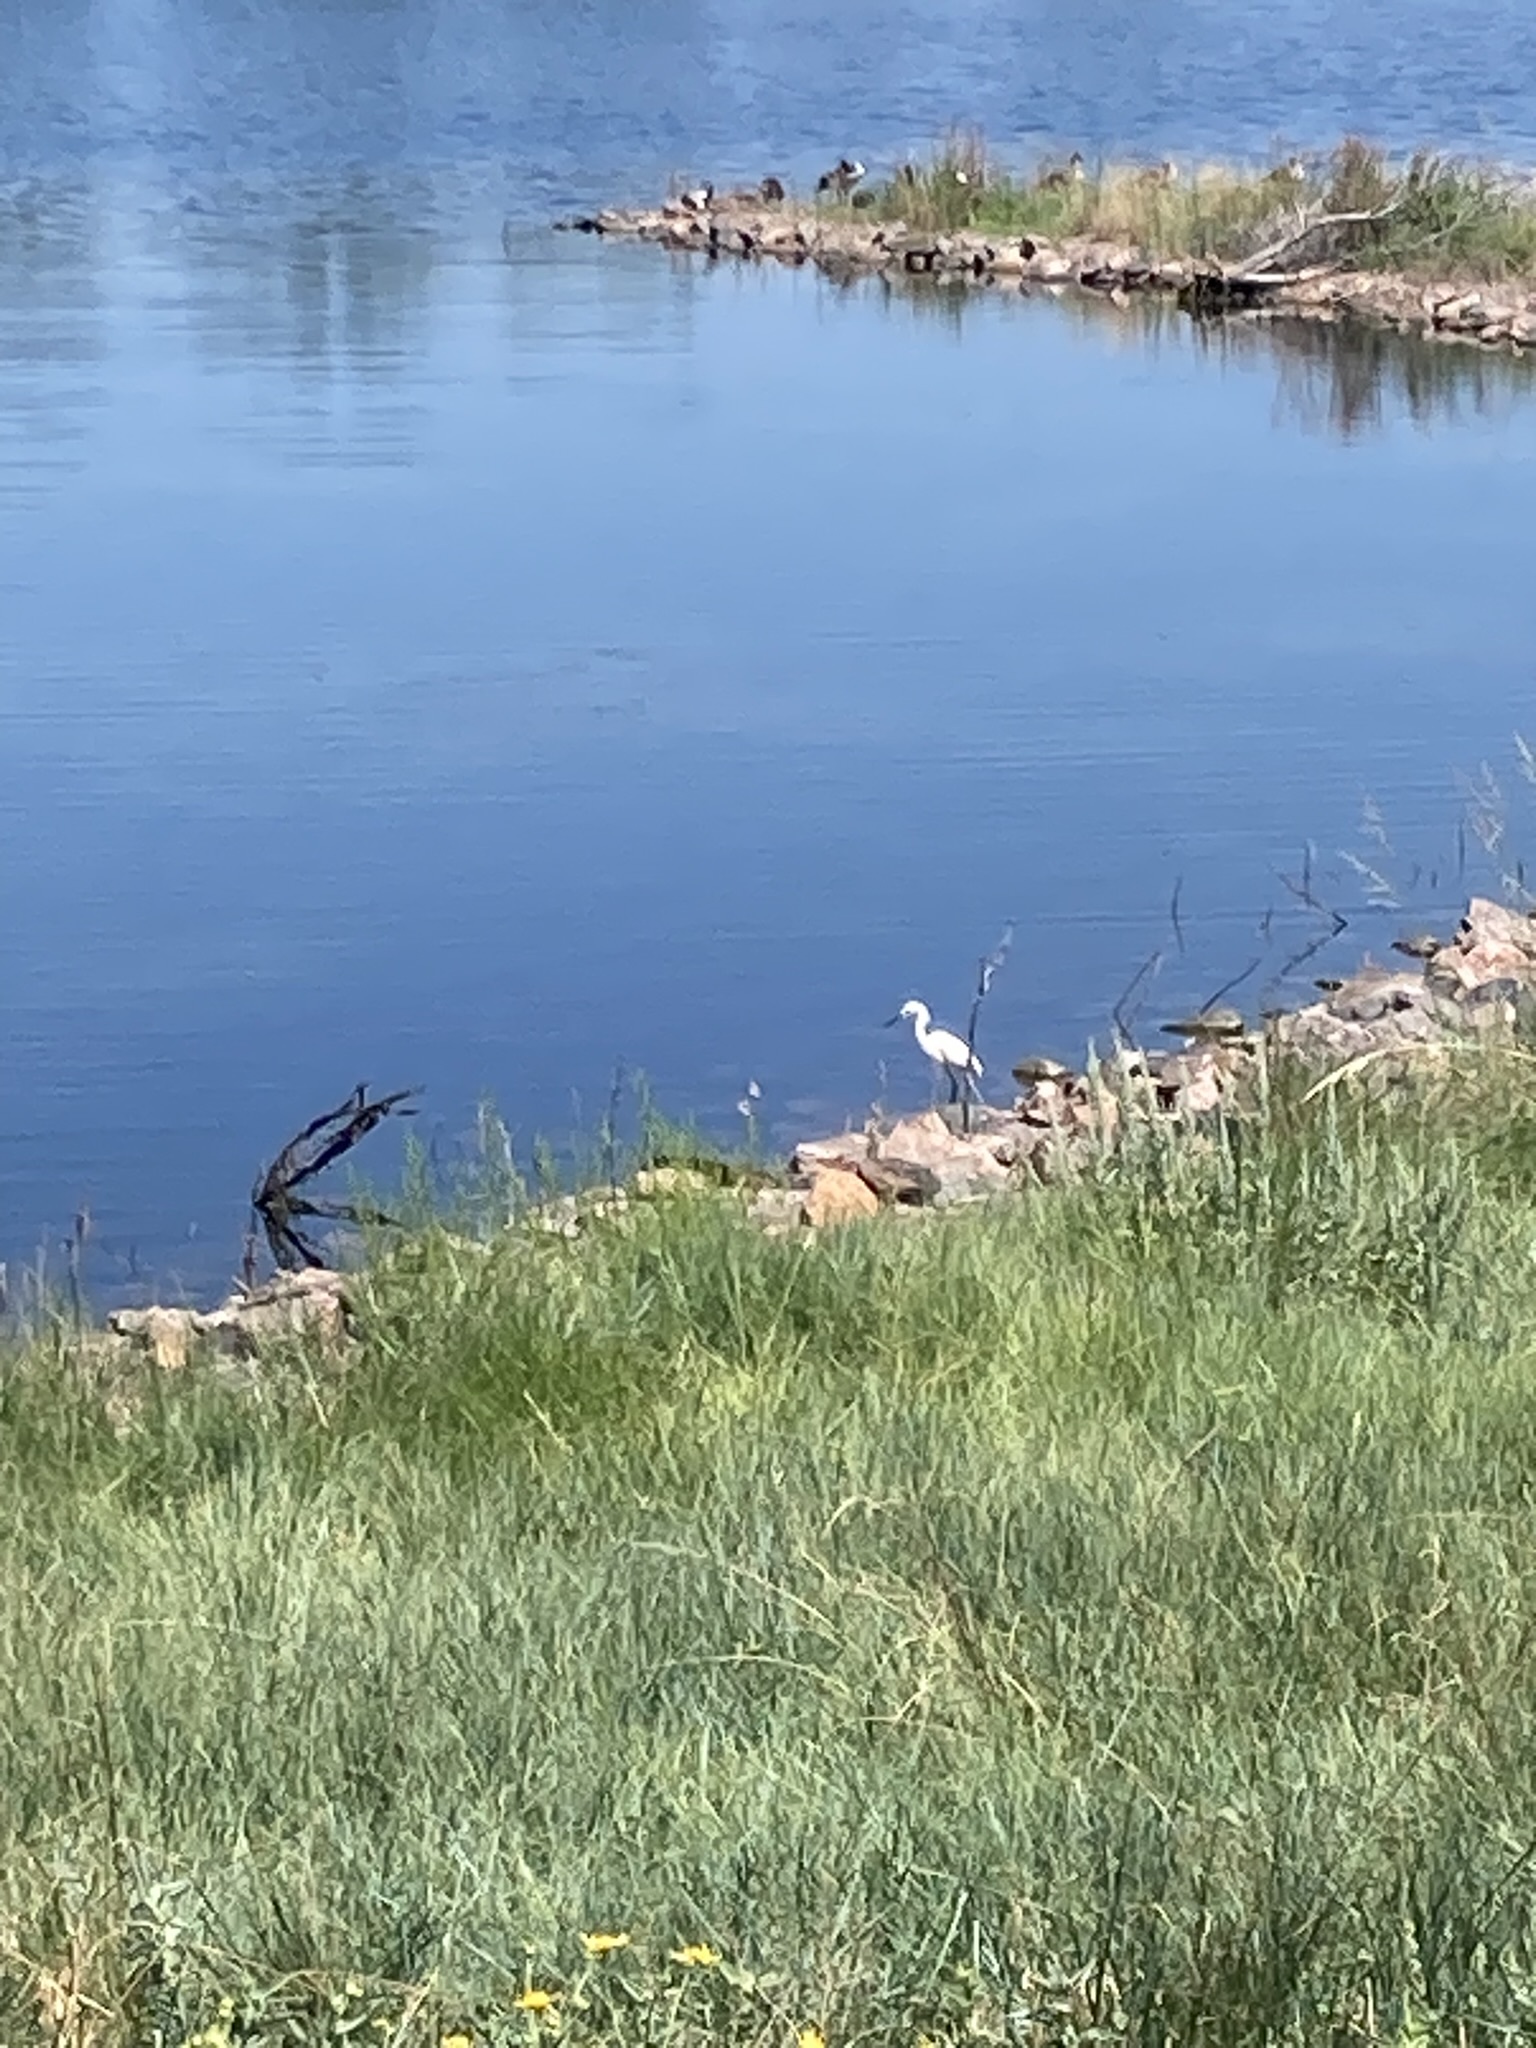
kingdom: Animalia
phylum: Chordata
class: Aves
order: Pelecaniformes
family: Ardeidae
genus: Egretta
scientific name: Egretta thula
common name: Snowy egret
